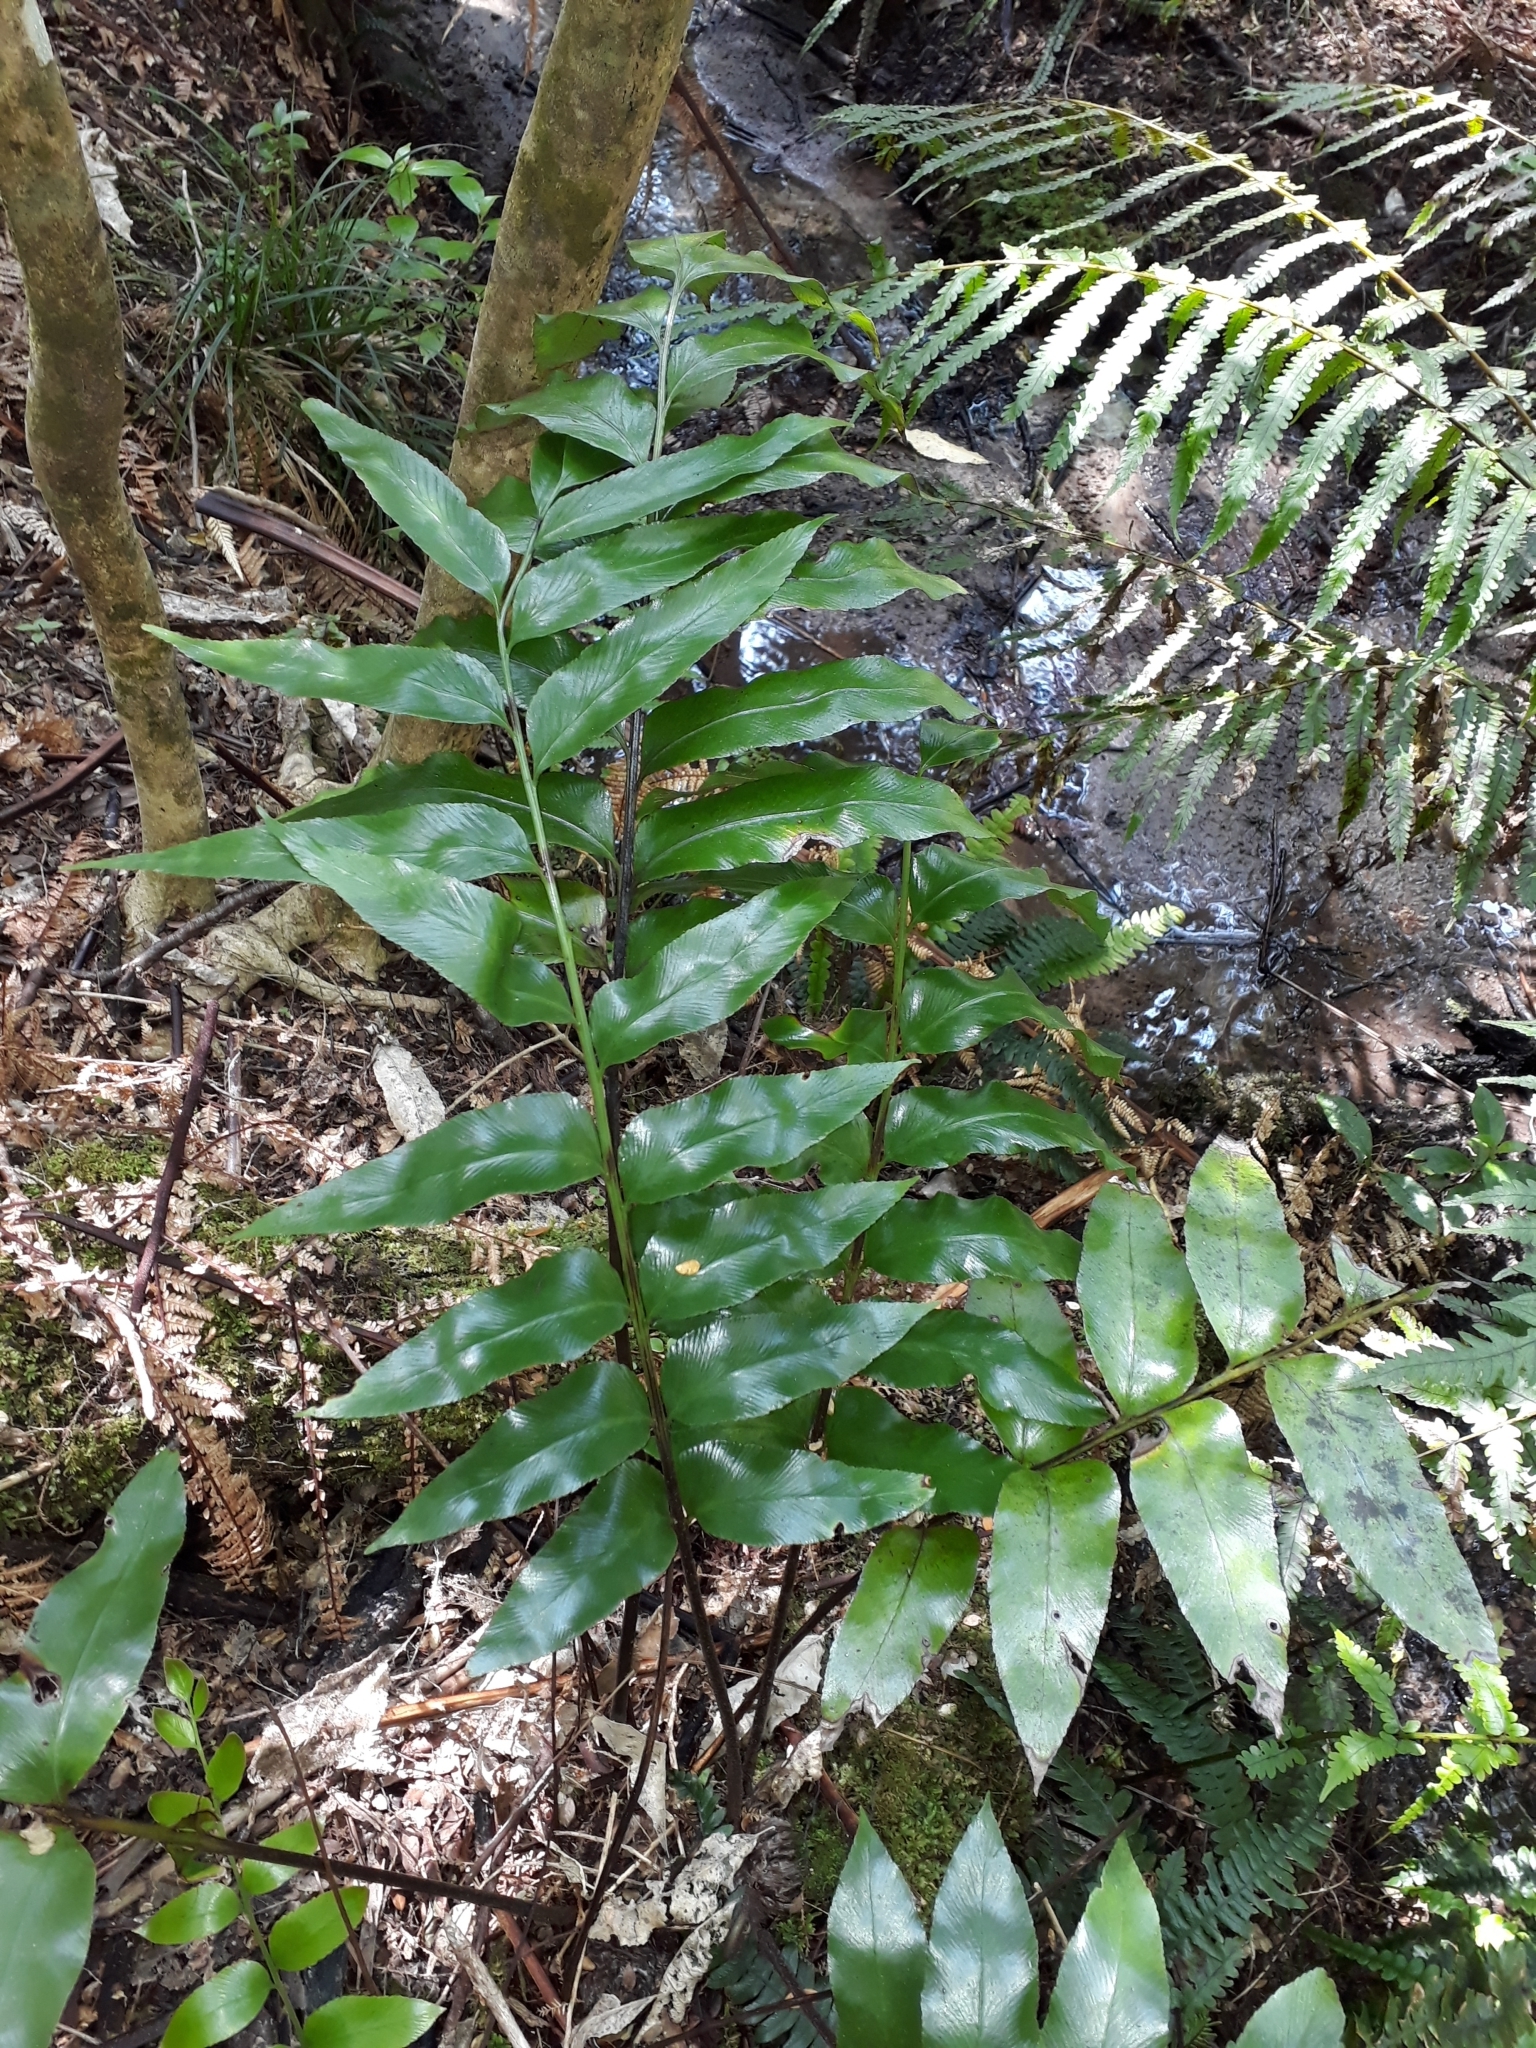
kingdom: Plantae
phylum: Tracheophyta
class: Polypodiopsida
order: Polypodiales
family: Aspleniaceae
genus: Asplenium
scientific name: Asplenium oblongifolium
